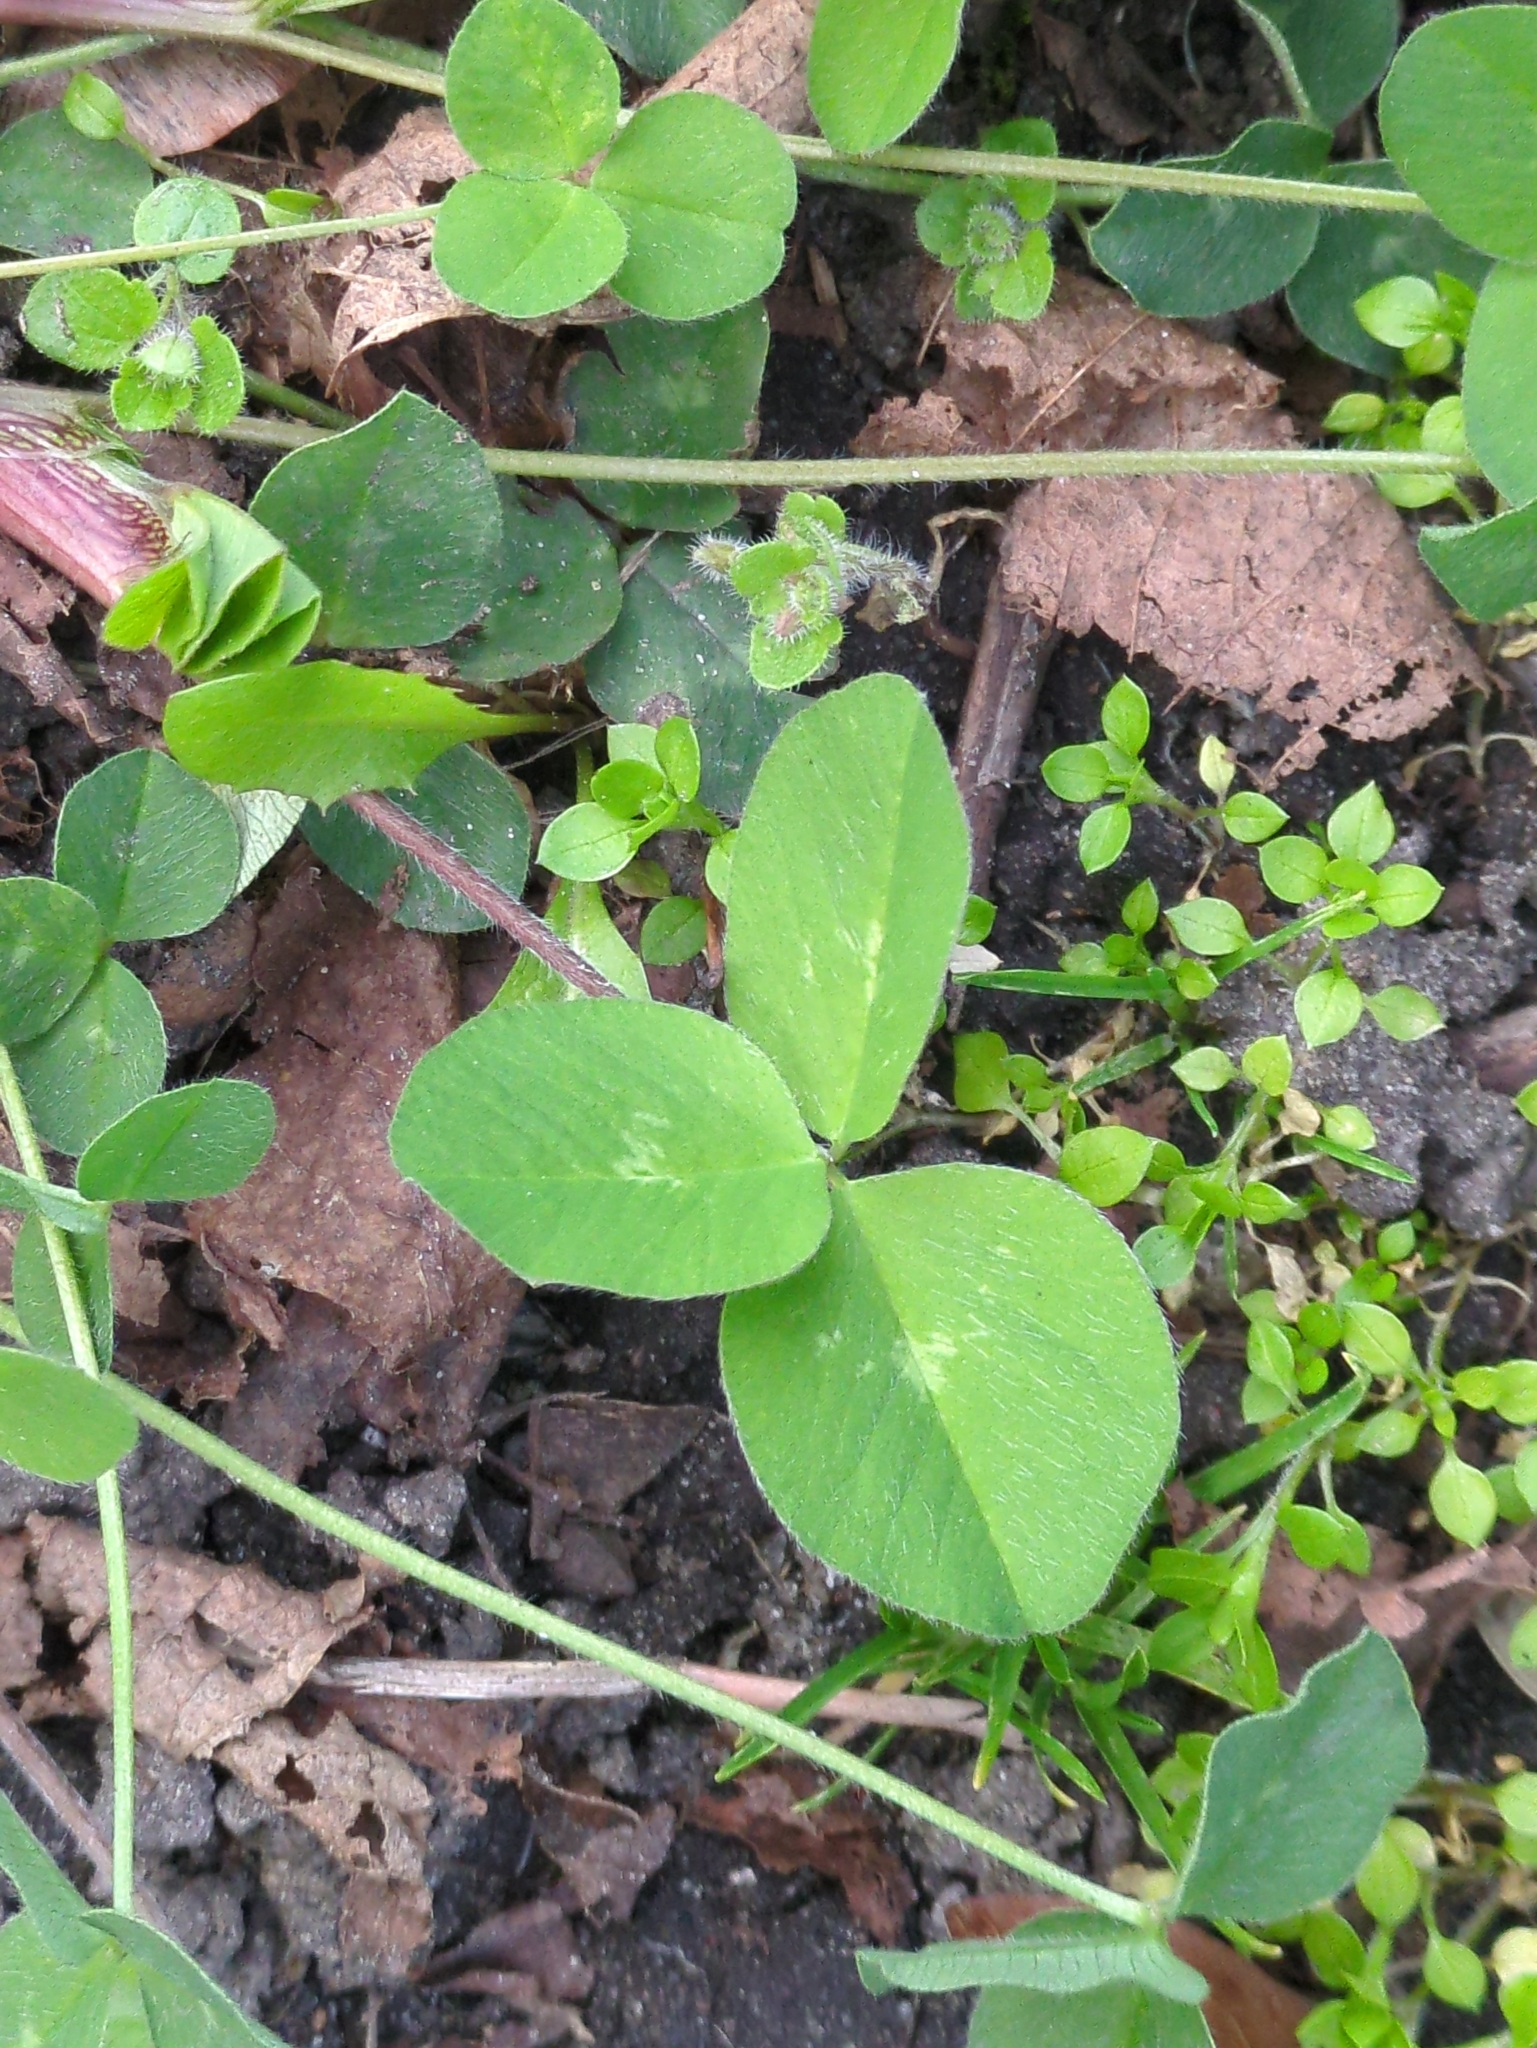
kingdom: Plantae
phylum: Tracheophyta
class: Magnoliopsida
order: Fabales
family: Fabaceae
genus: Trifolium
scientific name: Trifolium pratense
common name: Red clover
